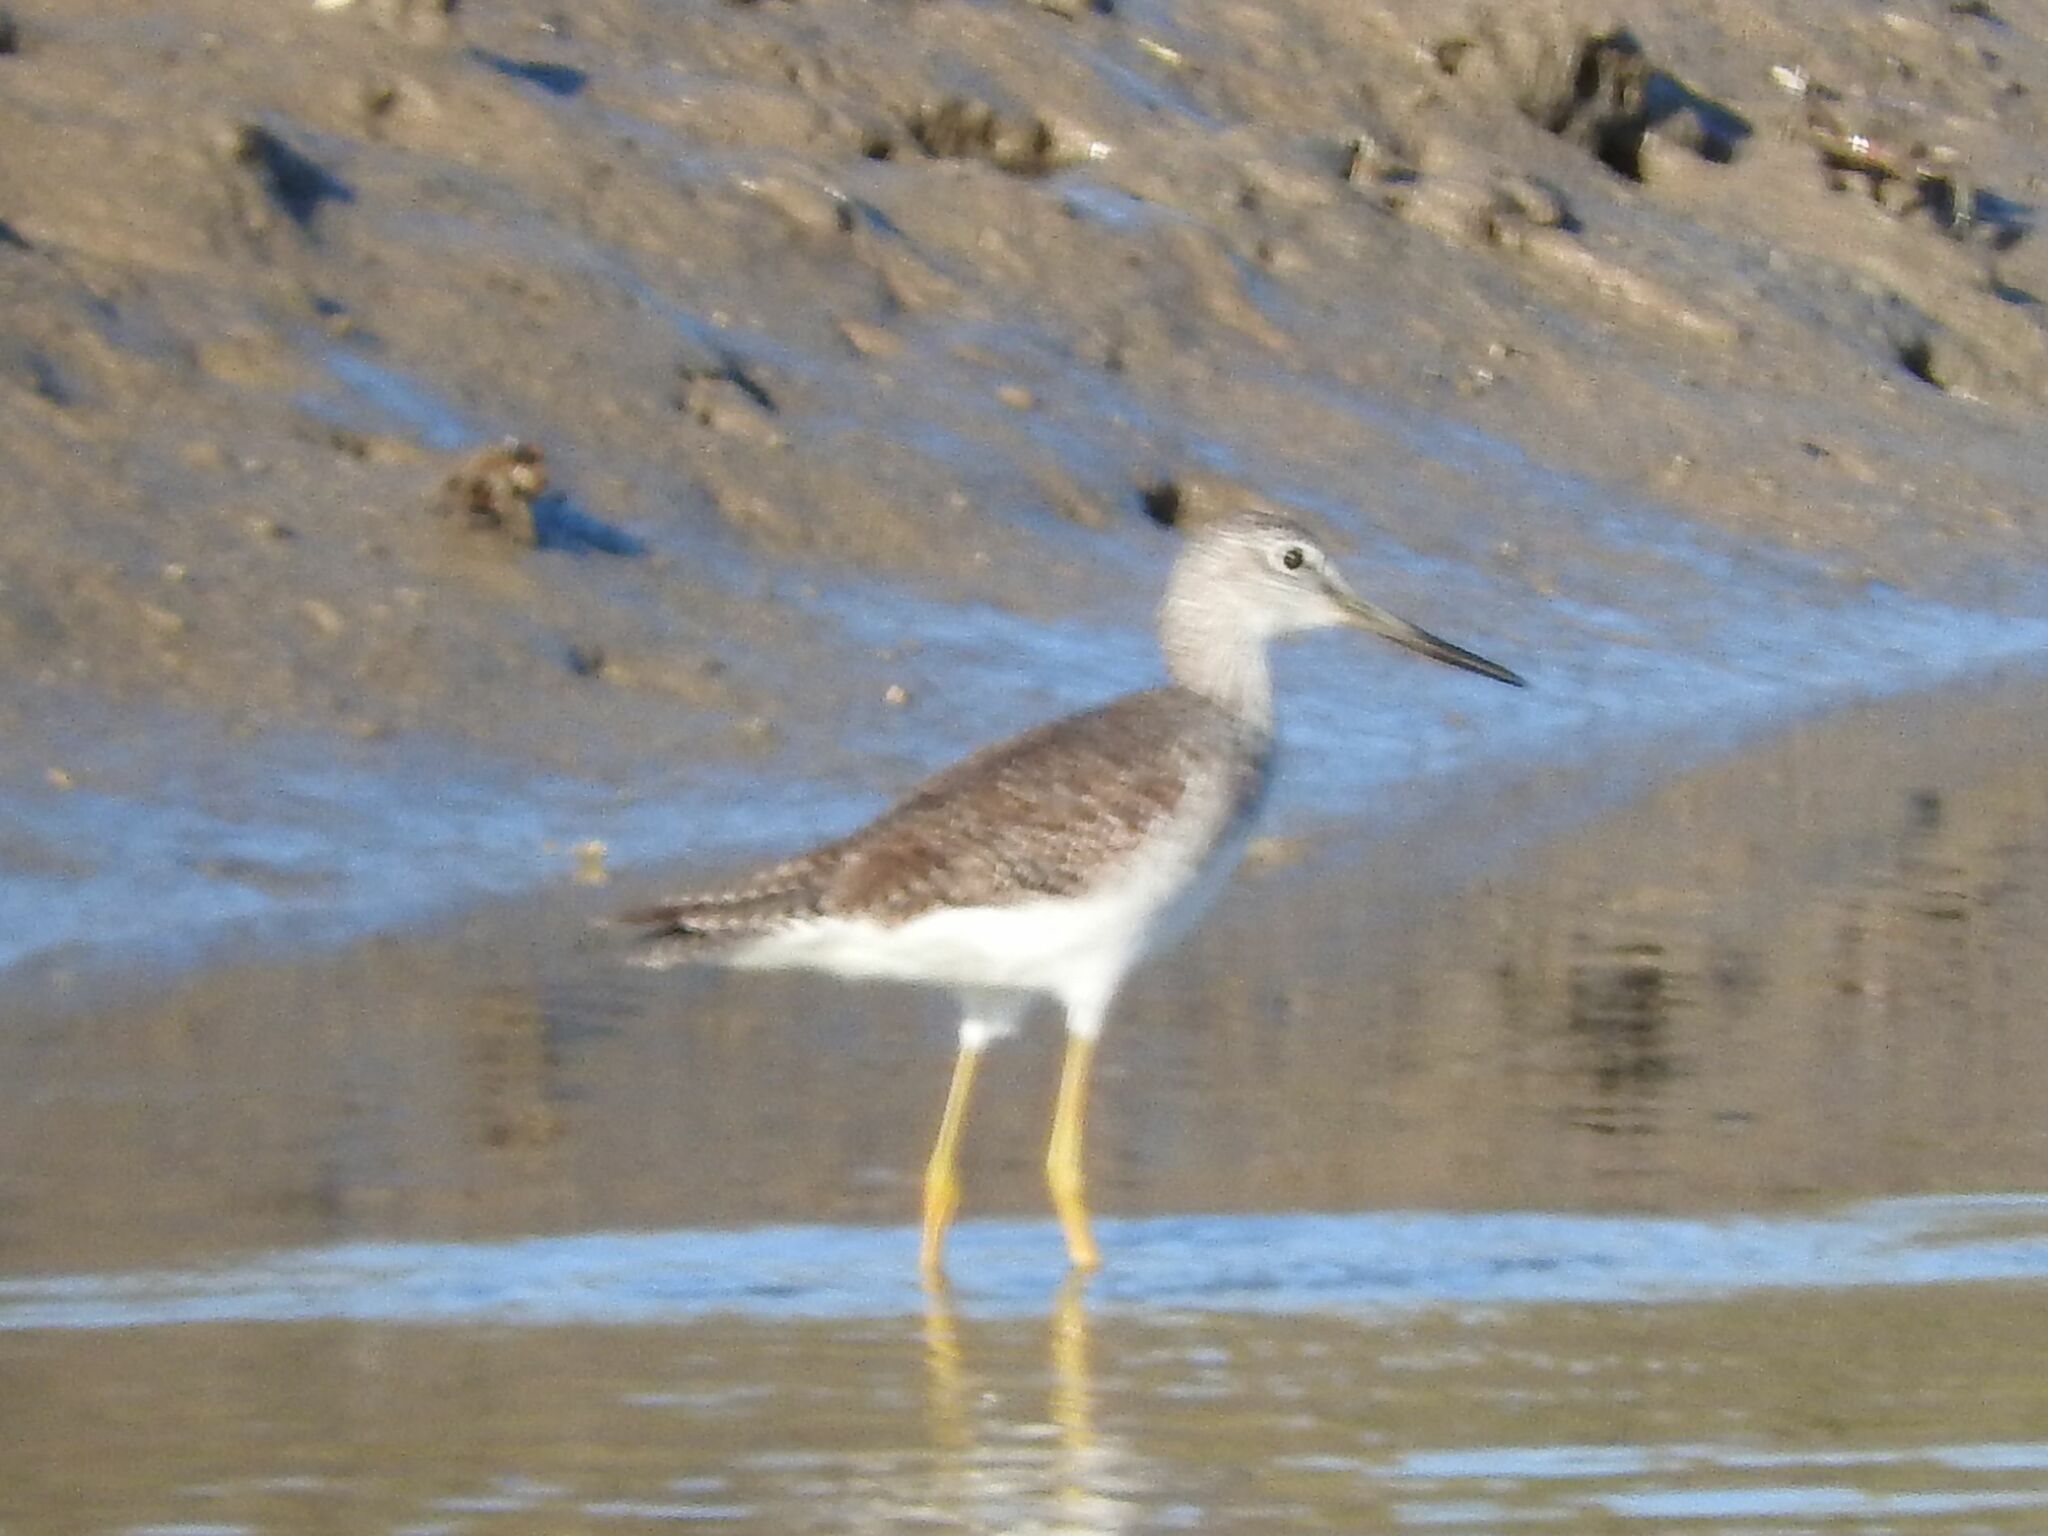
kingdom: Animalia
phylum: Chordata
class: Aves
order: Charadriiformes
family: Scolopacidae
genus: Tringa
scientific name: Tringa melanoleuca
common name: Greater yellowlegs
